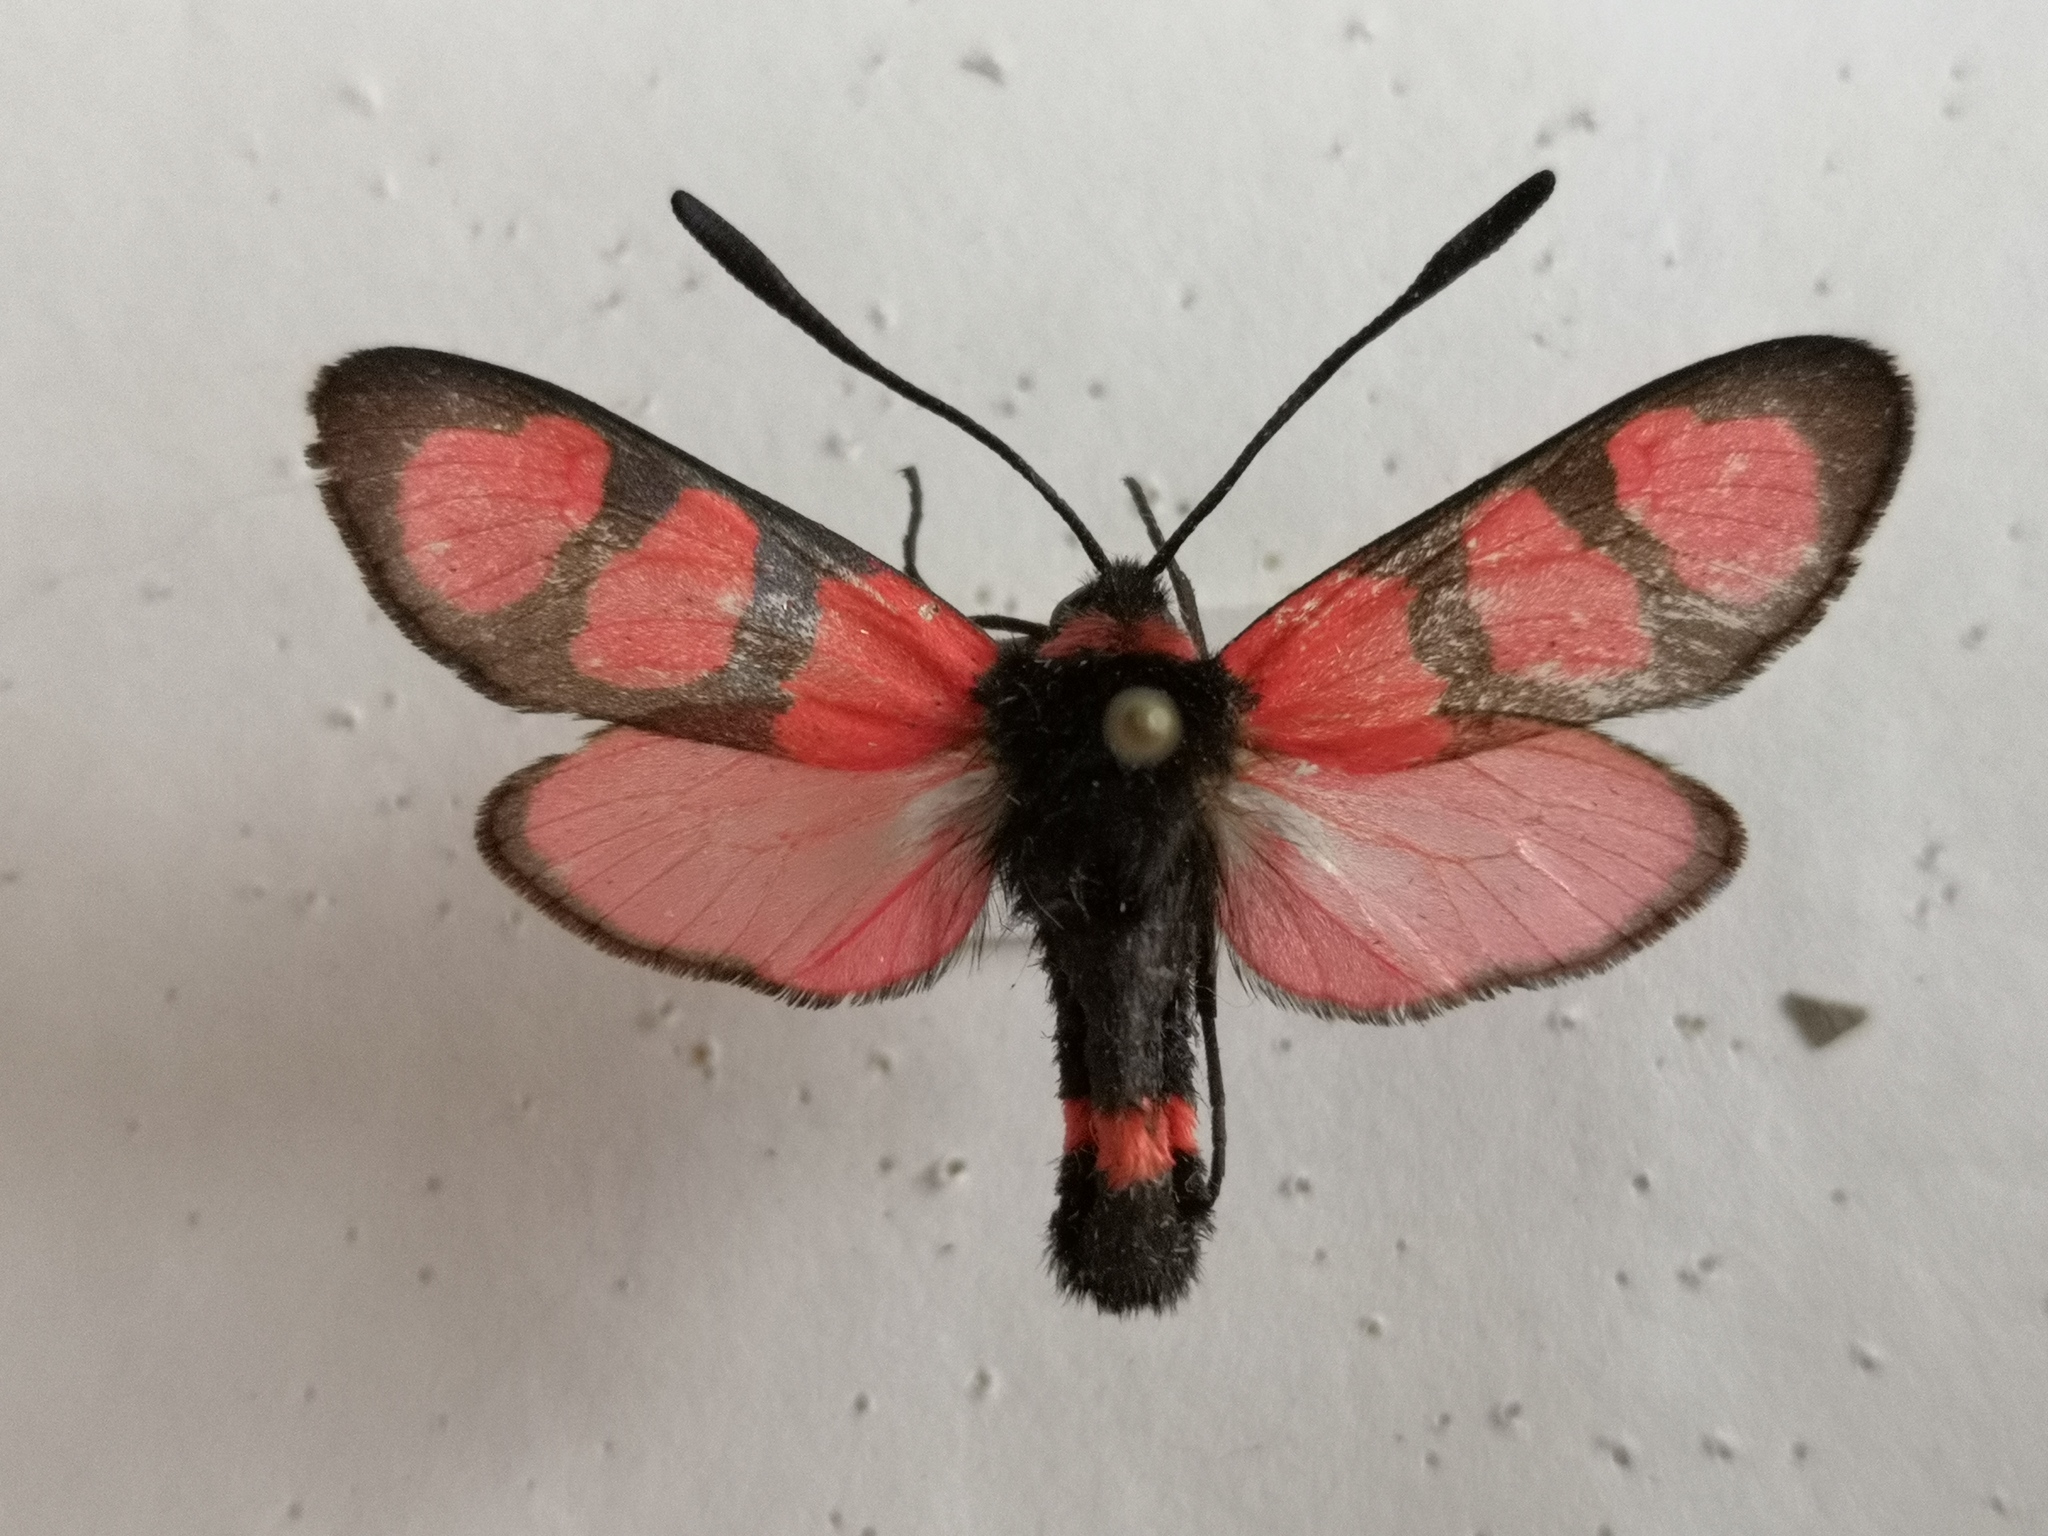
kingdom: Animalia
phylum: Arthropoda
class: Insecta
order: Lepidoptera
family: Zygaenidae
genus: Zygaena
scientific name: Zygaena cuvieri
